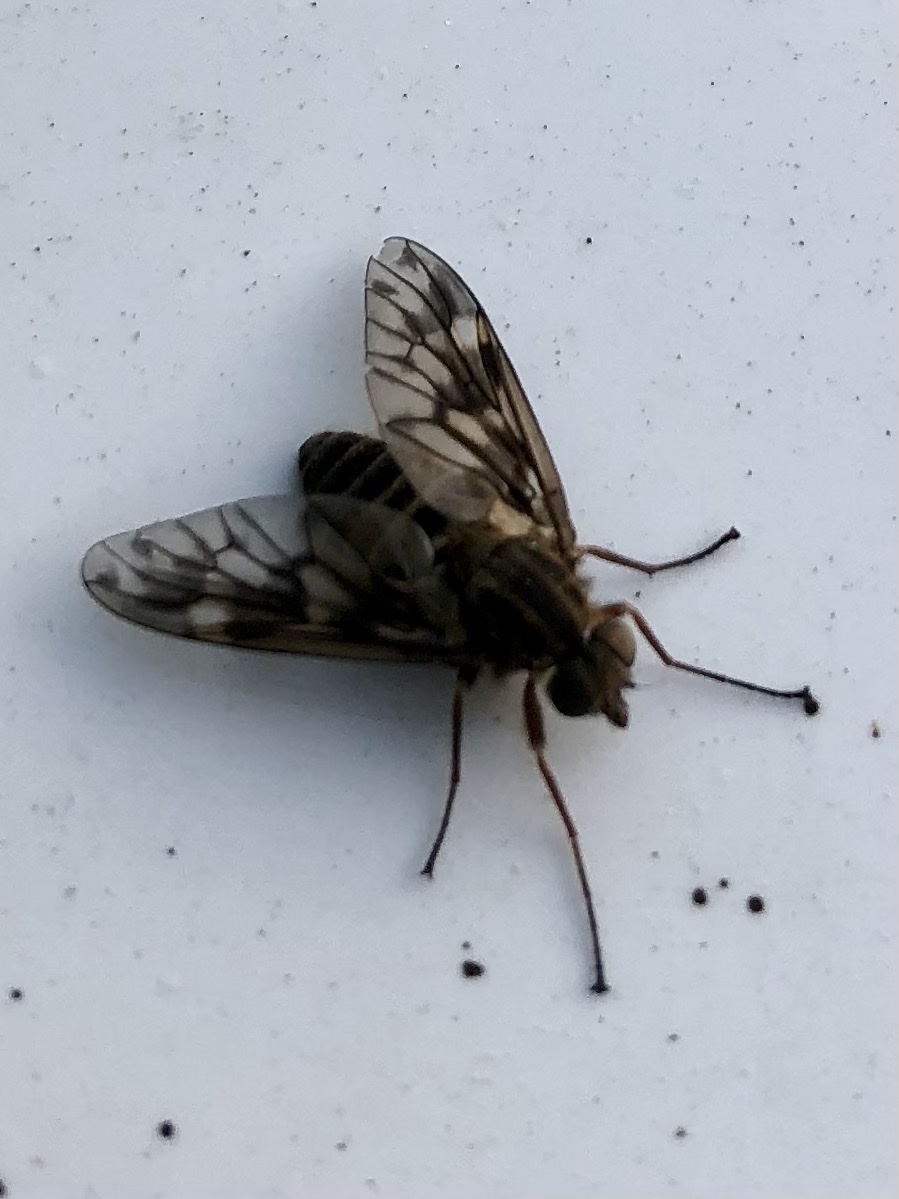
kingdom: Animalia
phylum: Arthropoda
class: Insecta
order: Diptera
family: Athericidae
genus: Atherix
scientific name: Atherix ibis
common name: Yellow-legged water-snipefly
